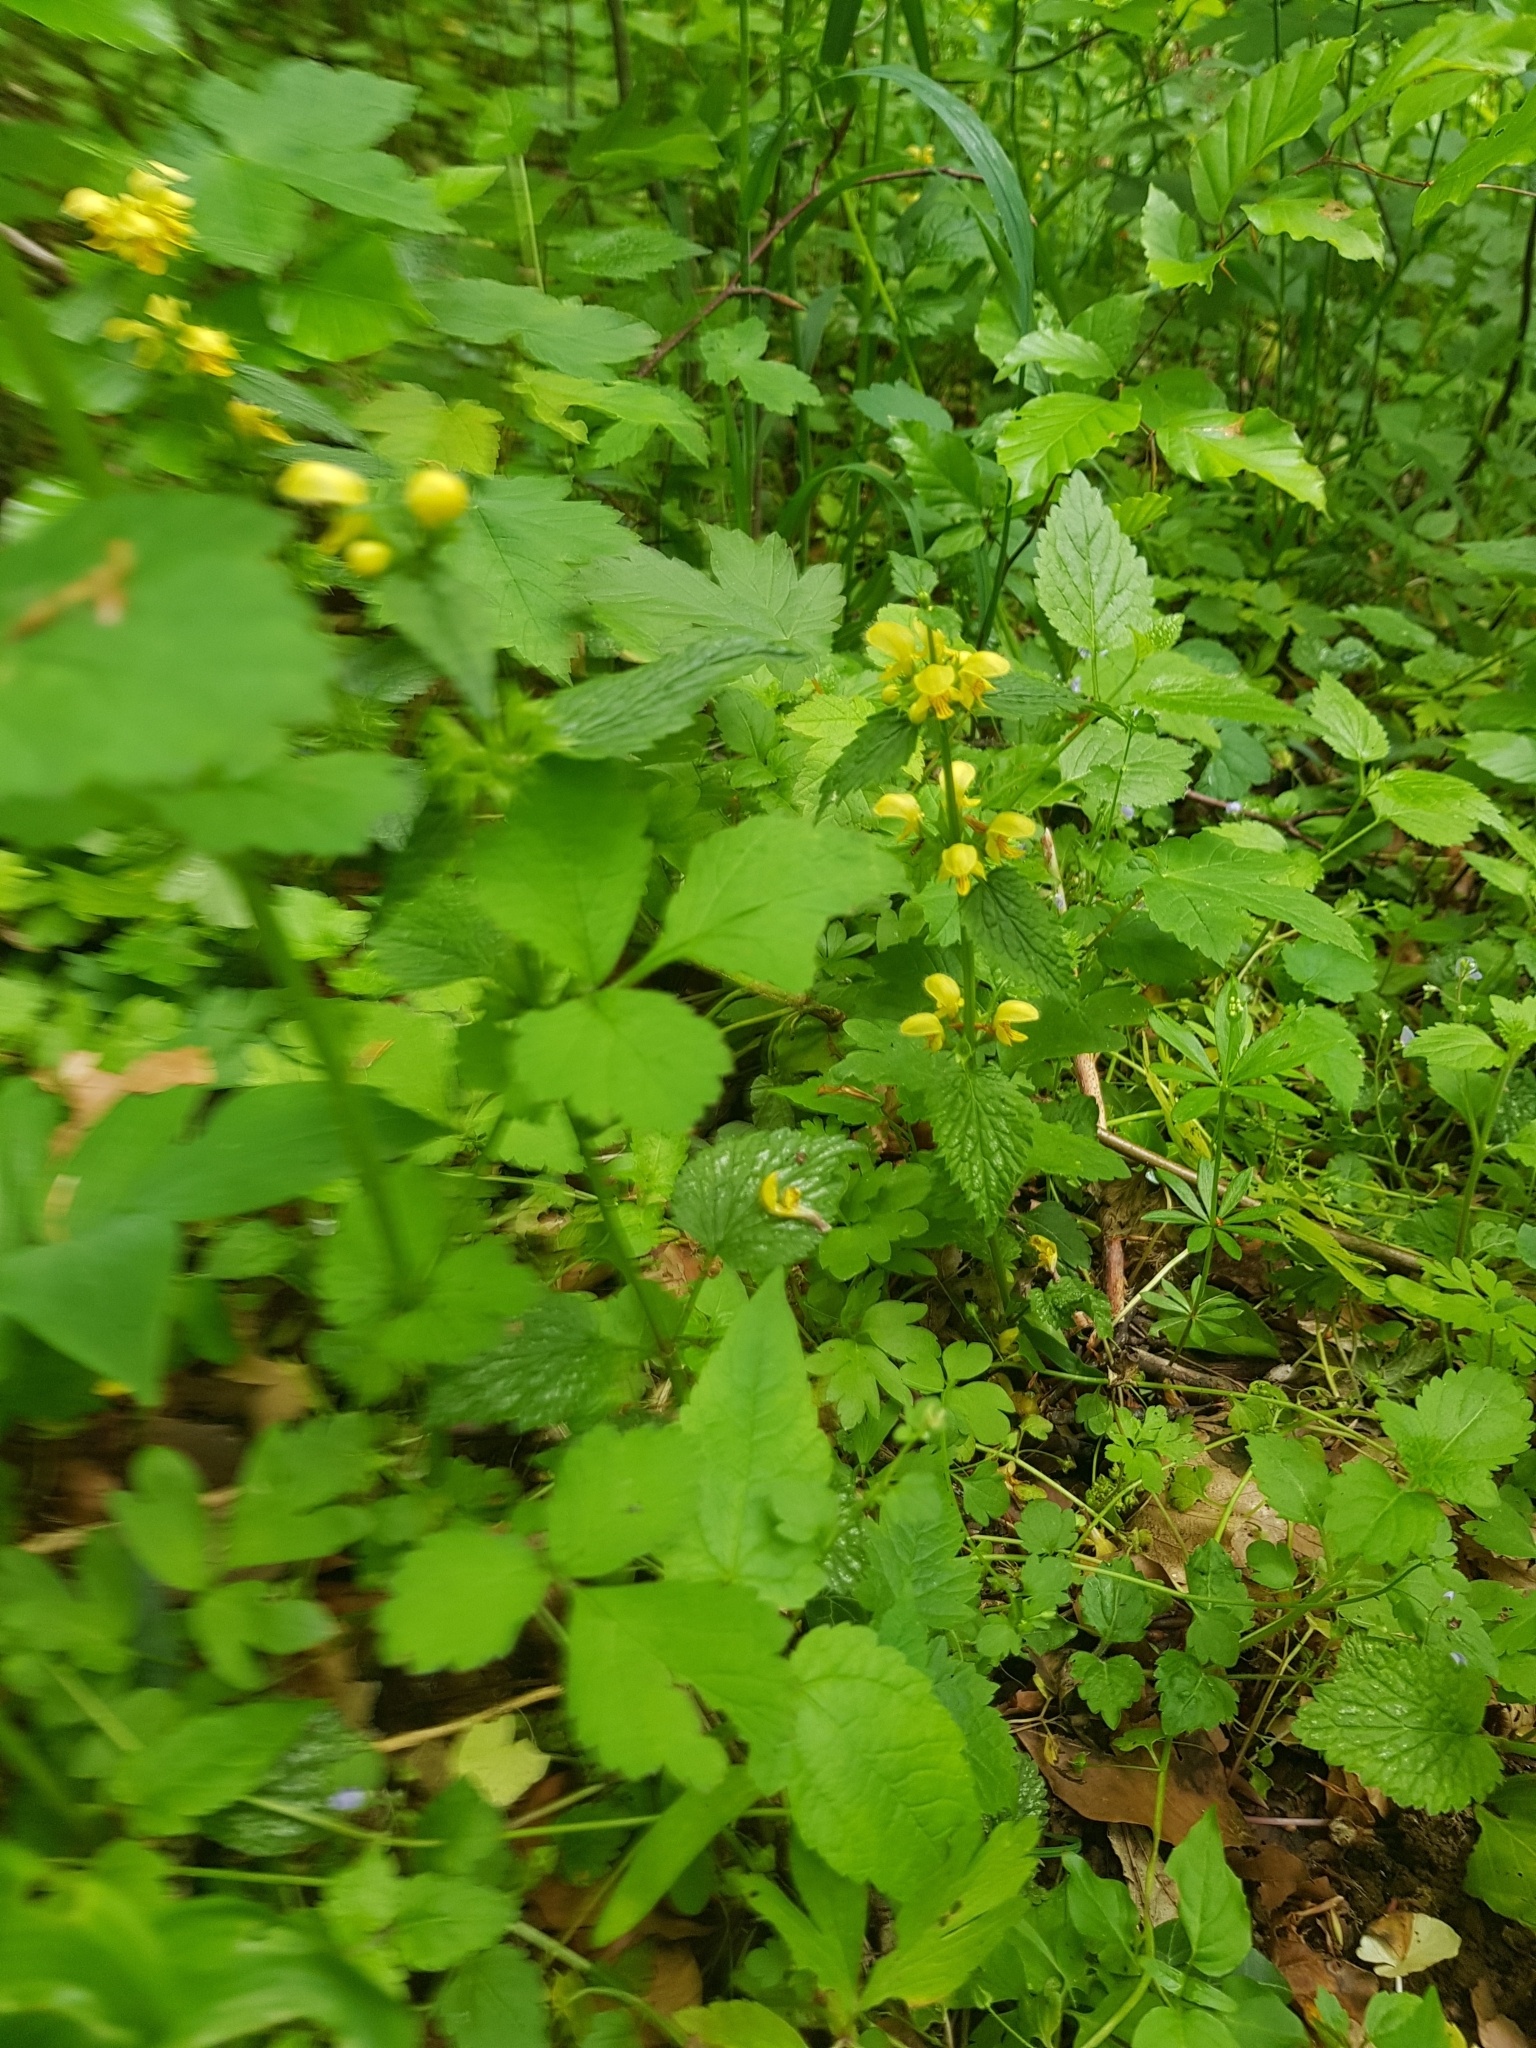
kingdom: Plantae
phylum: Tracheophyta
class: Magnoliopsida
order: Lamiales
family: Lamiaceae
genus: Lamium
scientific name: Lamium galeobdolon
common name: Yellow archangel
